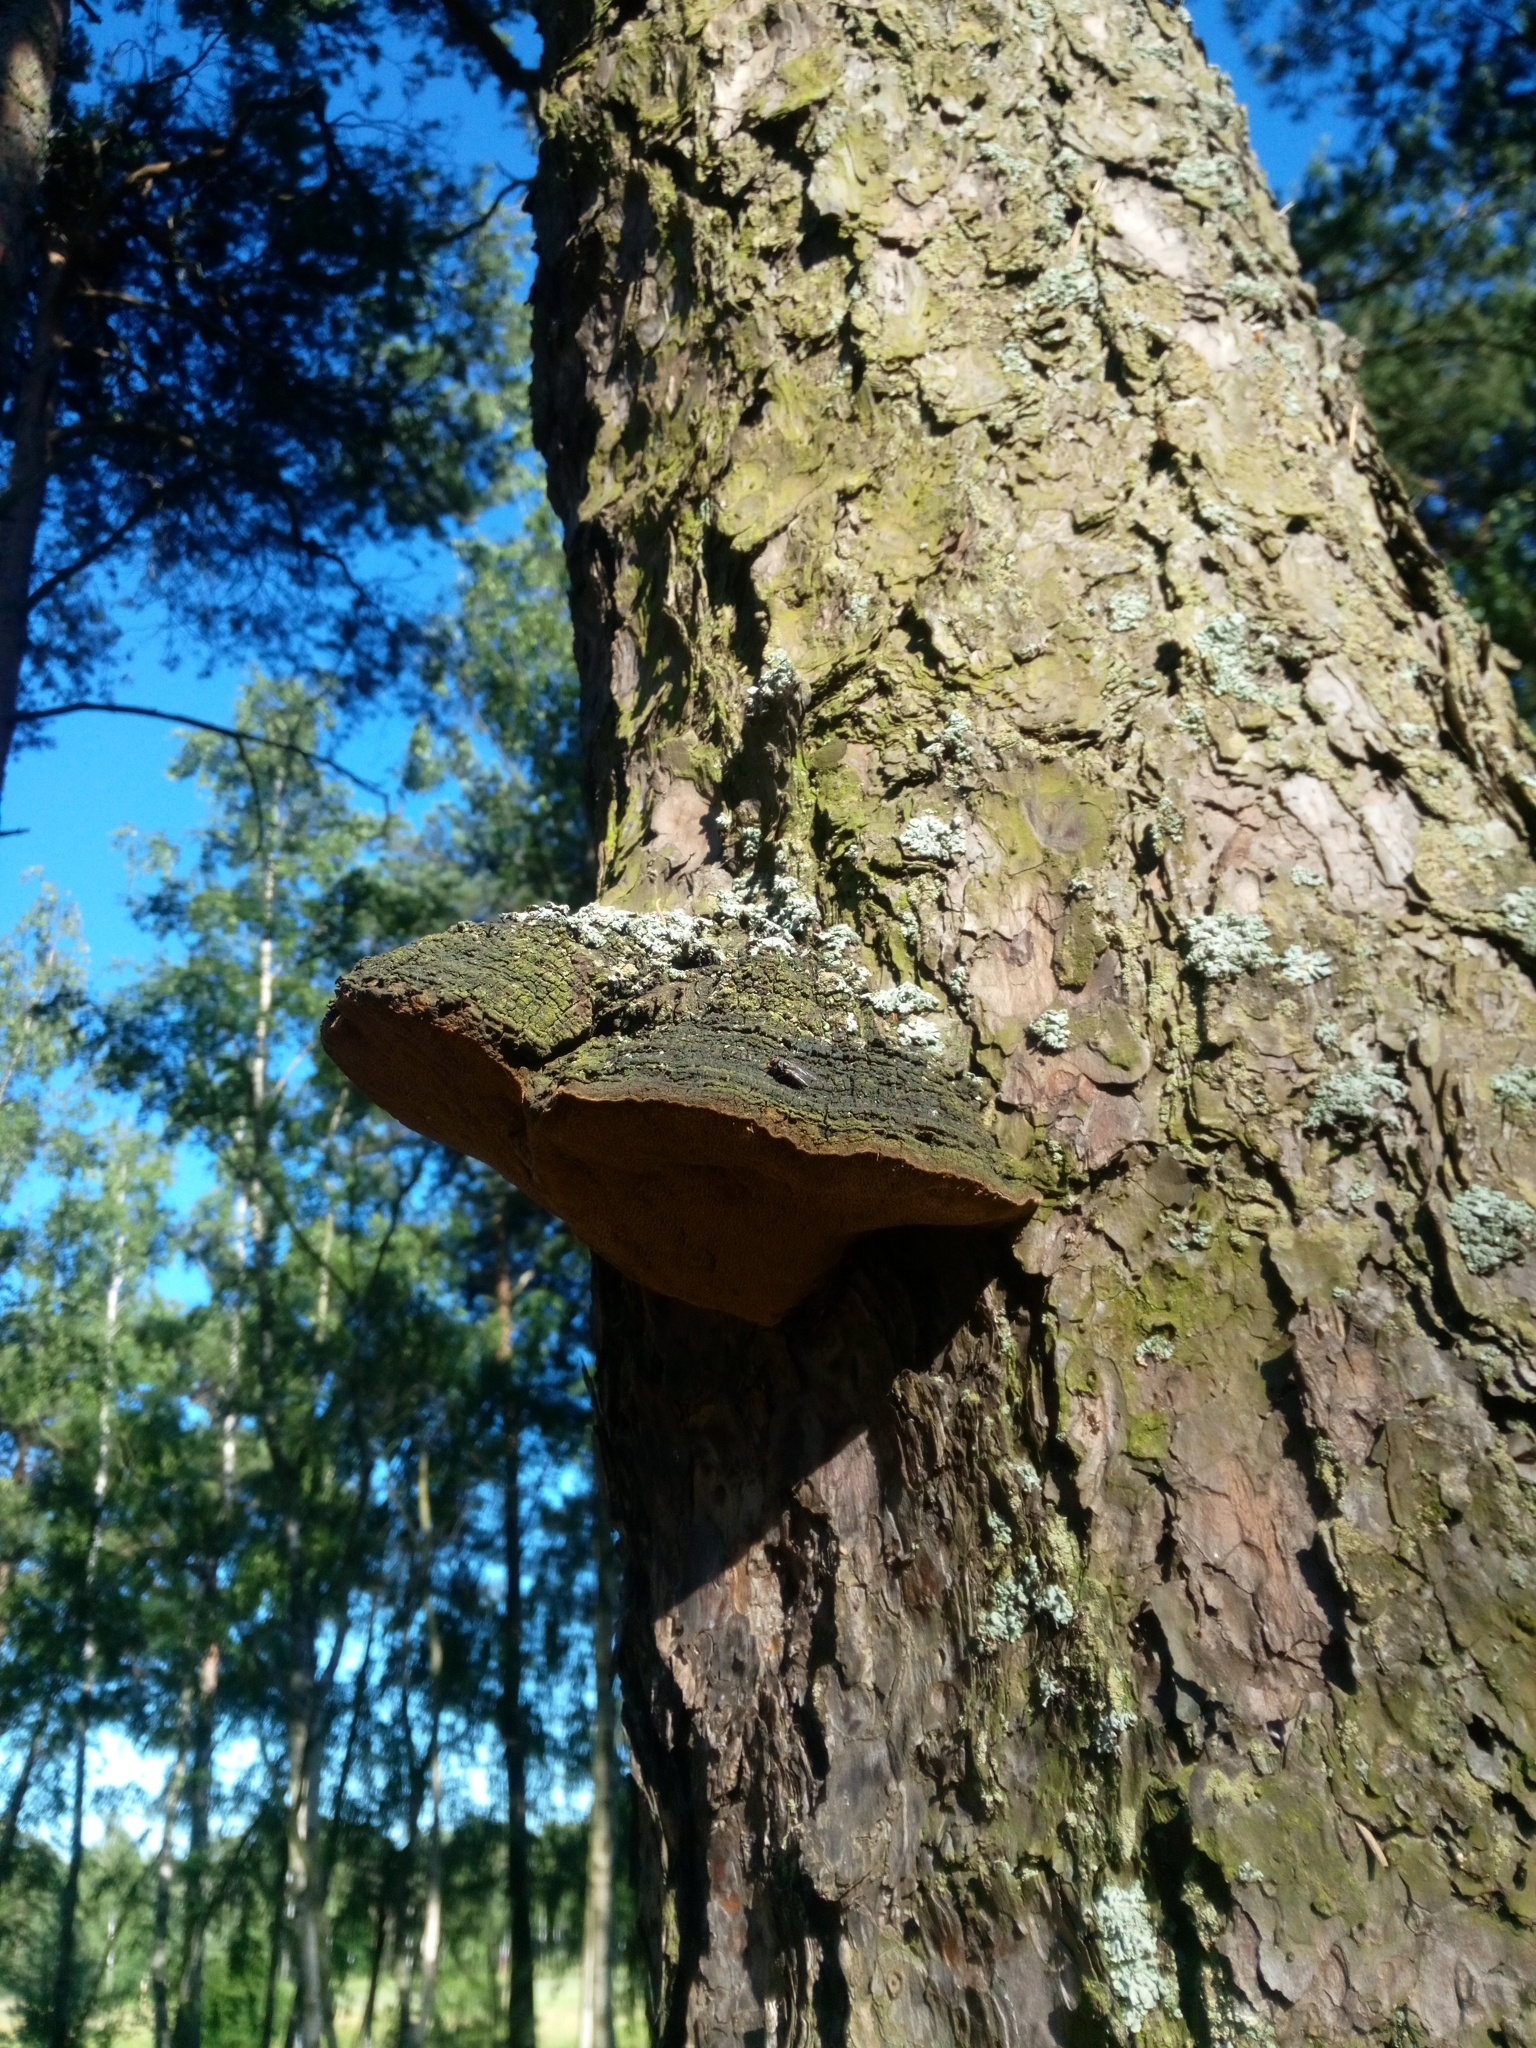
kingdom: Fungi
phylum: Basidiomycota
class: Agaricomycetes
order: Hymenochaetales
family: Hymenochaetaceae
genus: Porodaedalea
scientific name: Porodaedalea pini
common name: Pine bracket
